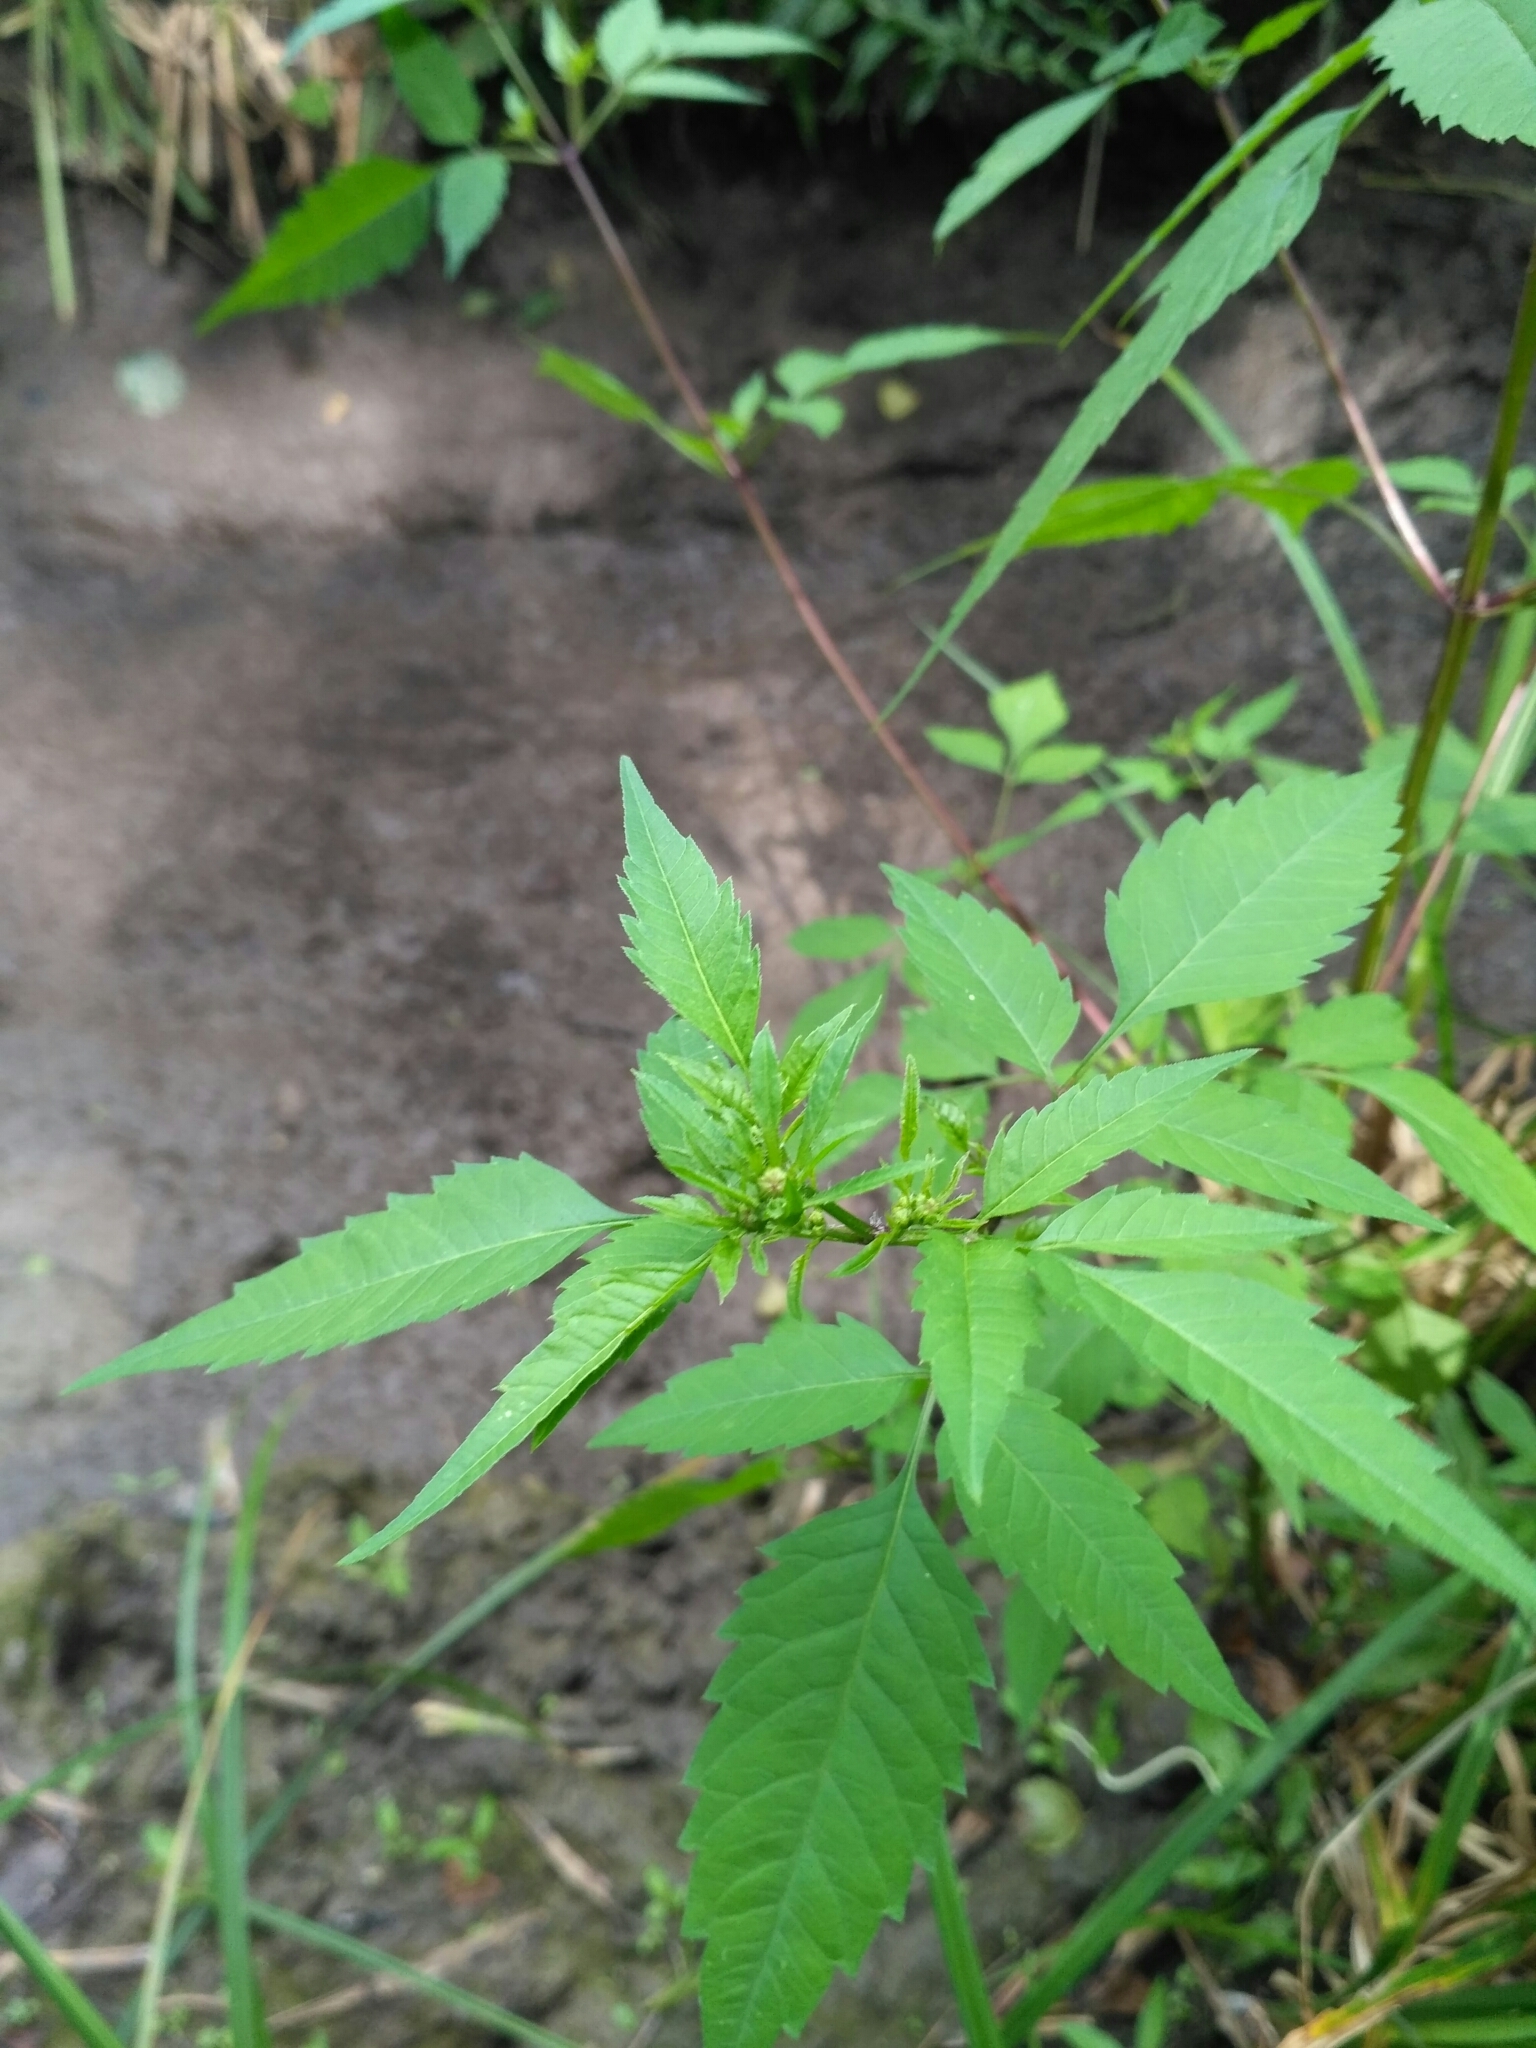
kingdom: Plantae
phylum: Tracheophyta
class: Magnoliopsida
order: Asterales
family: Asteraceae
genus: Bidens
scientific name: Bidens frondosa
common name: Beggarticks
